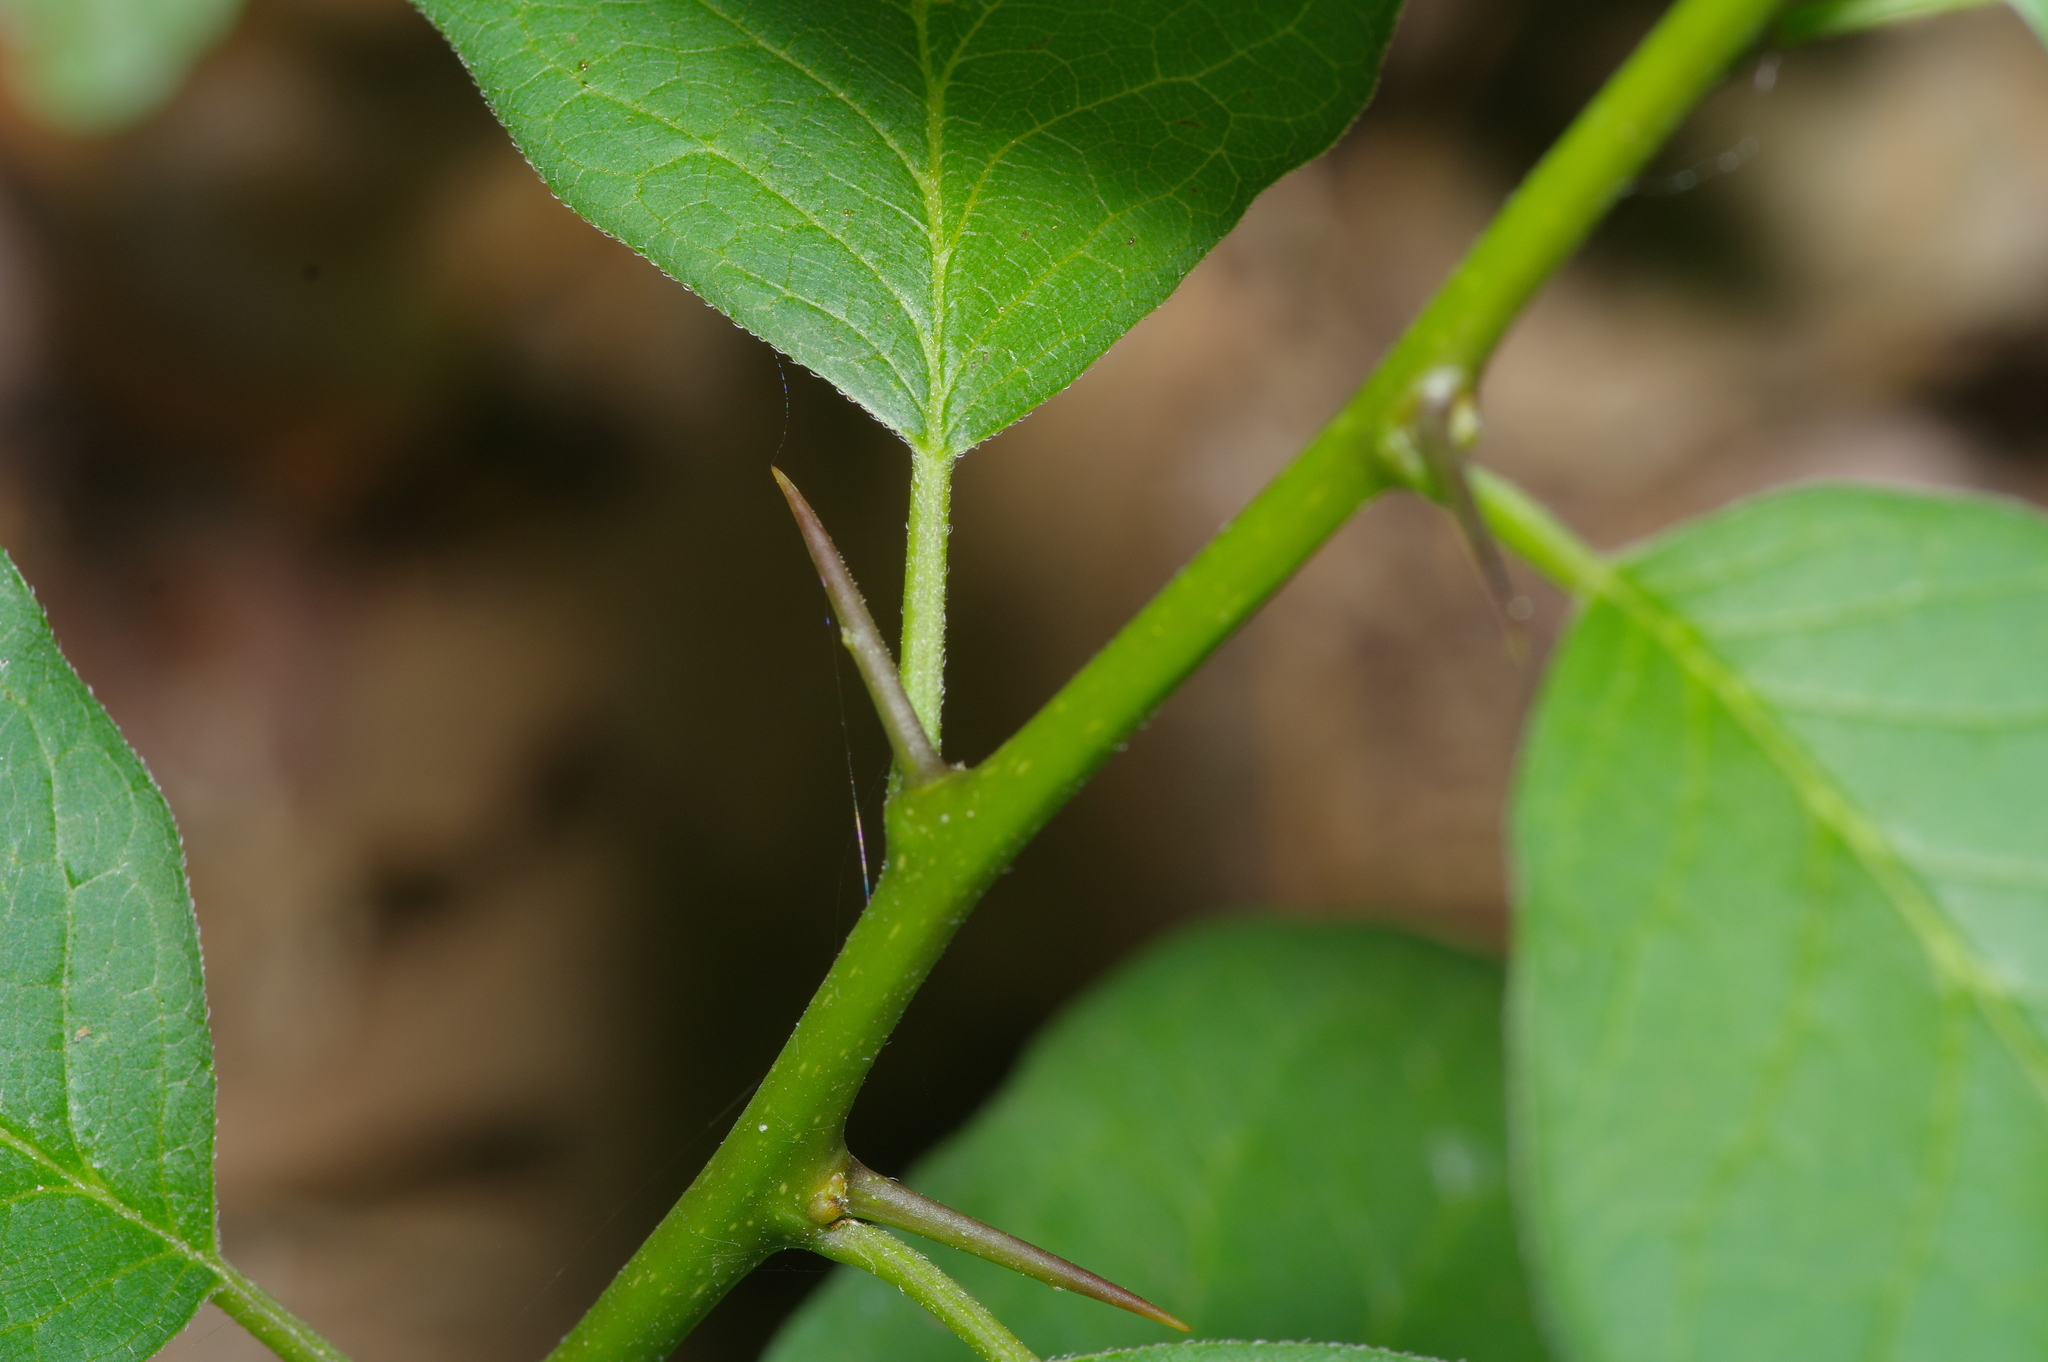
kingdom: Plantae
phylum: Tracheophyta
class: Magnoliopsida
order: Rosales
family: Moraceae
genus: Maclura
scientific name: Maclura pomifera
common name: Osage-orange
